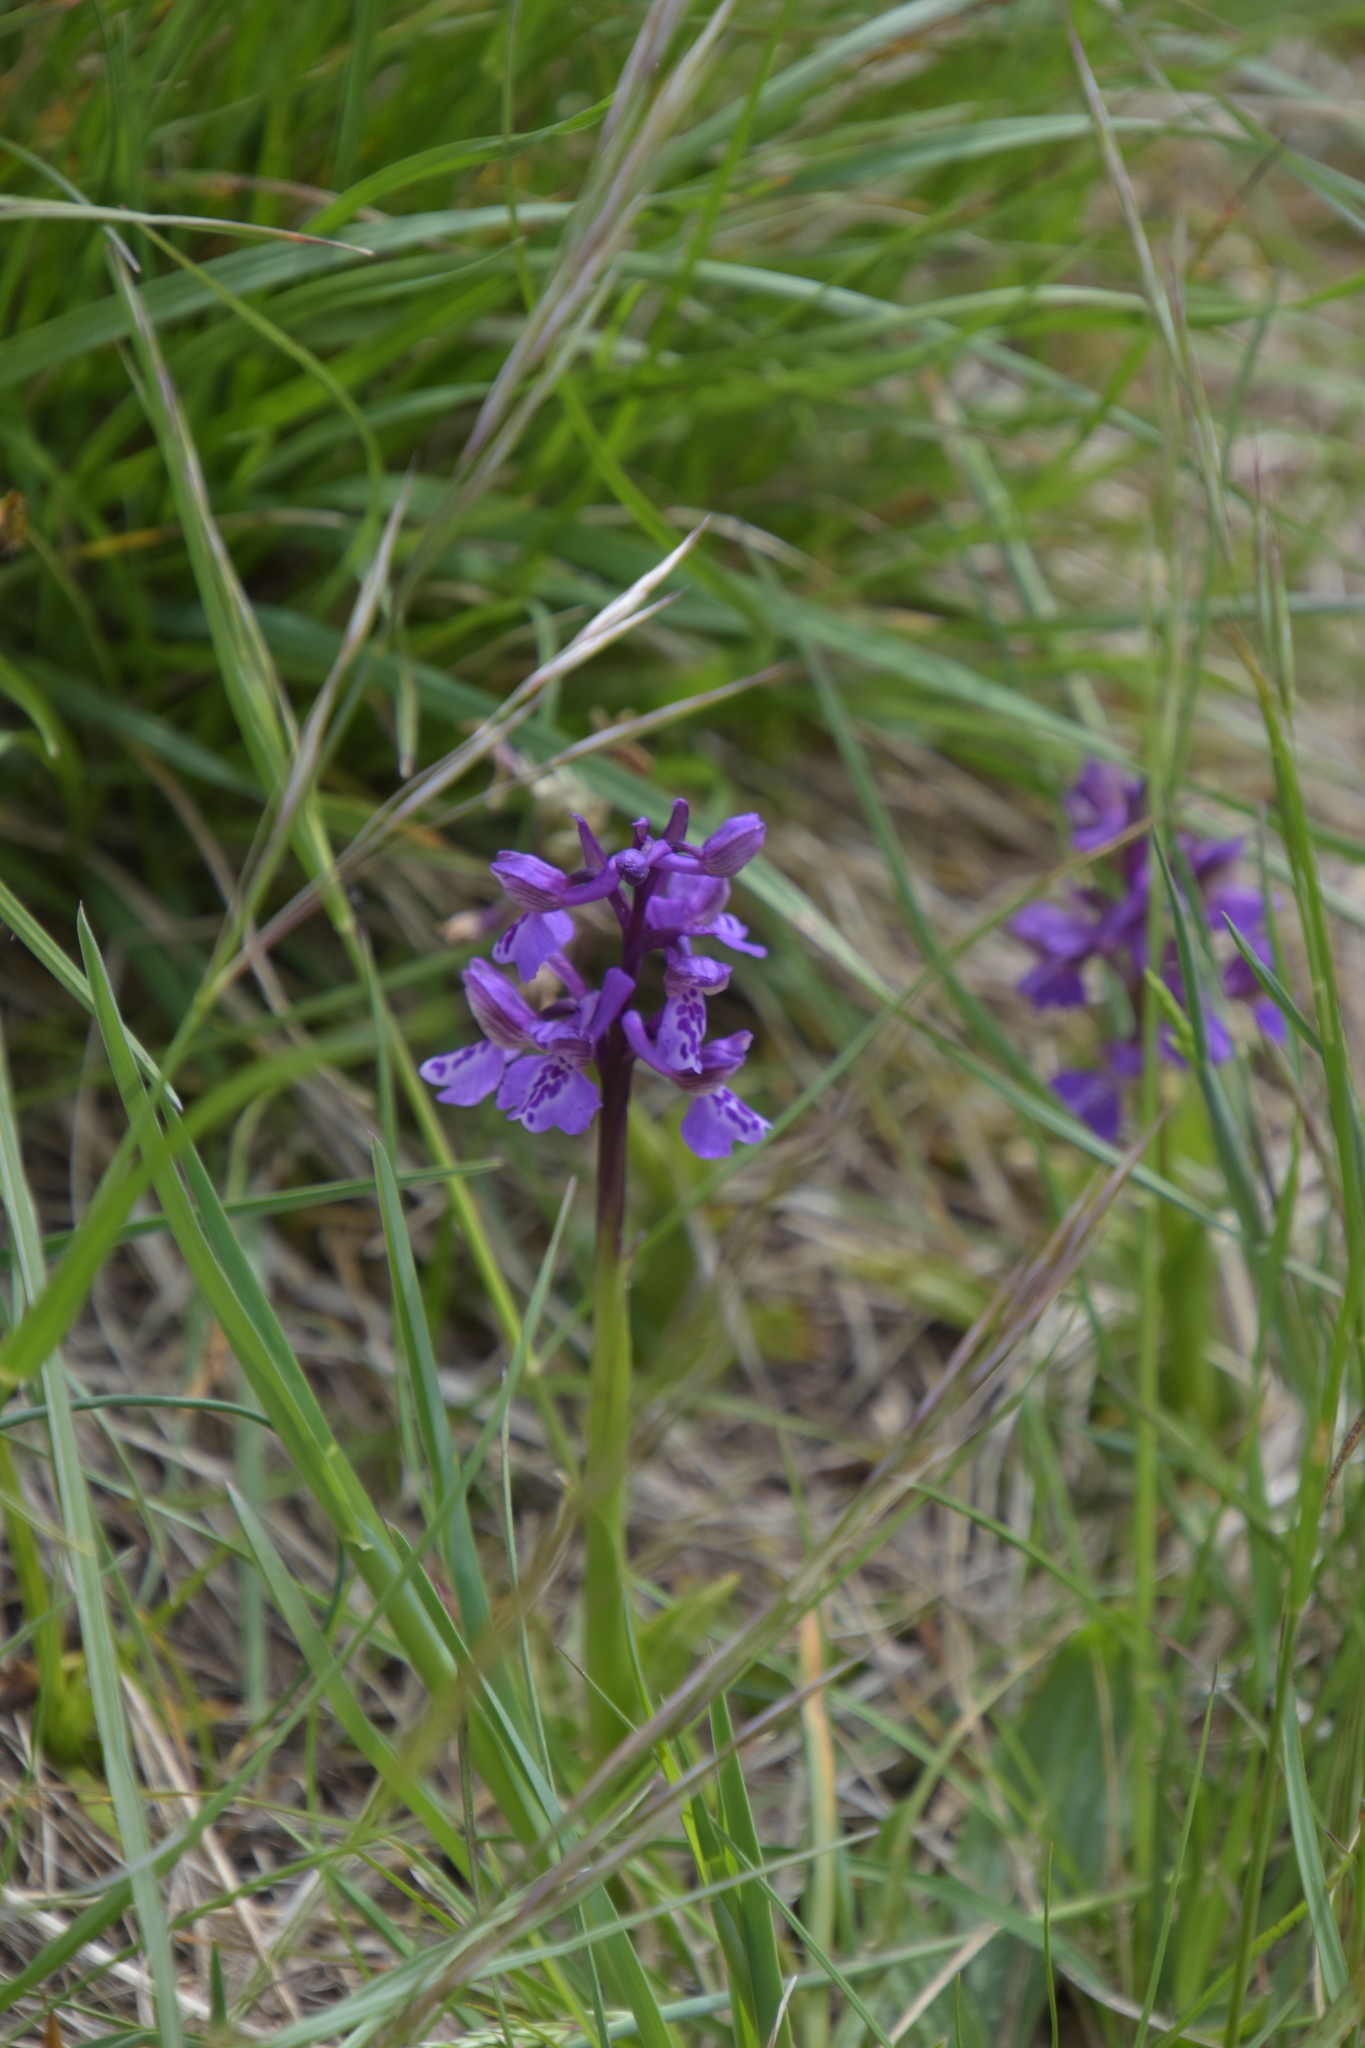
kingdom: Plantae
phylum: Tracheophyta
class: Liliopsida
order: Asparagales
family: Orchidaceae
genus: Anacamptis
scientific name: Anacamptis morio
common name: Green-winged orchid
